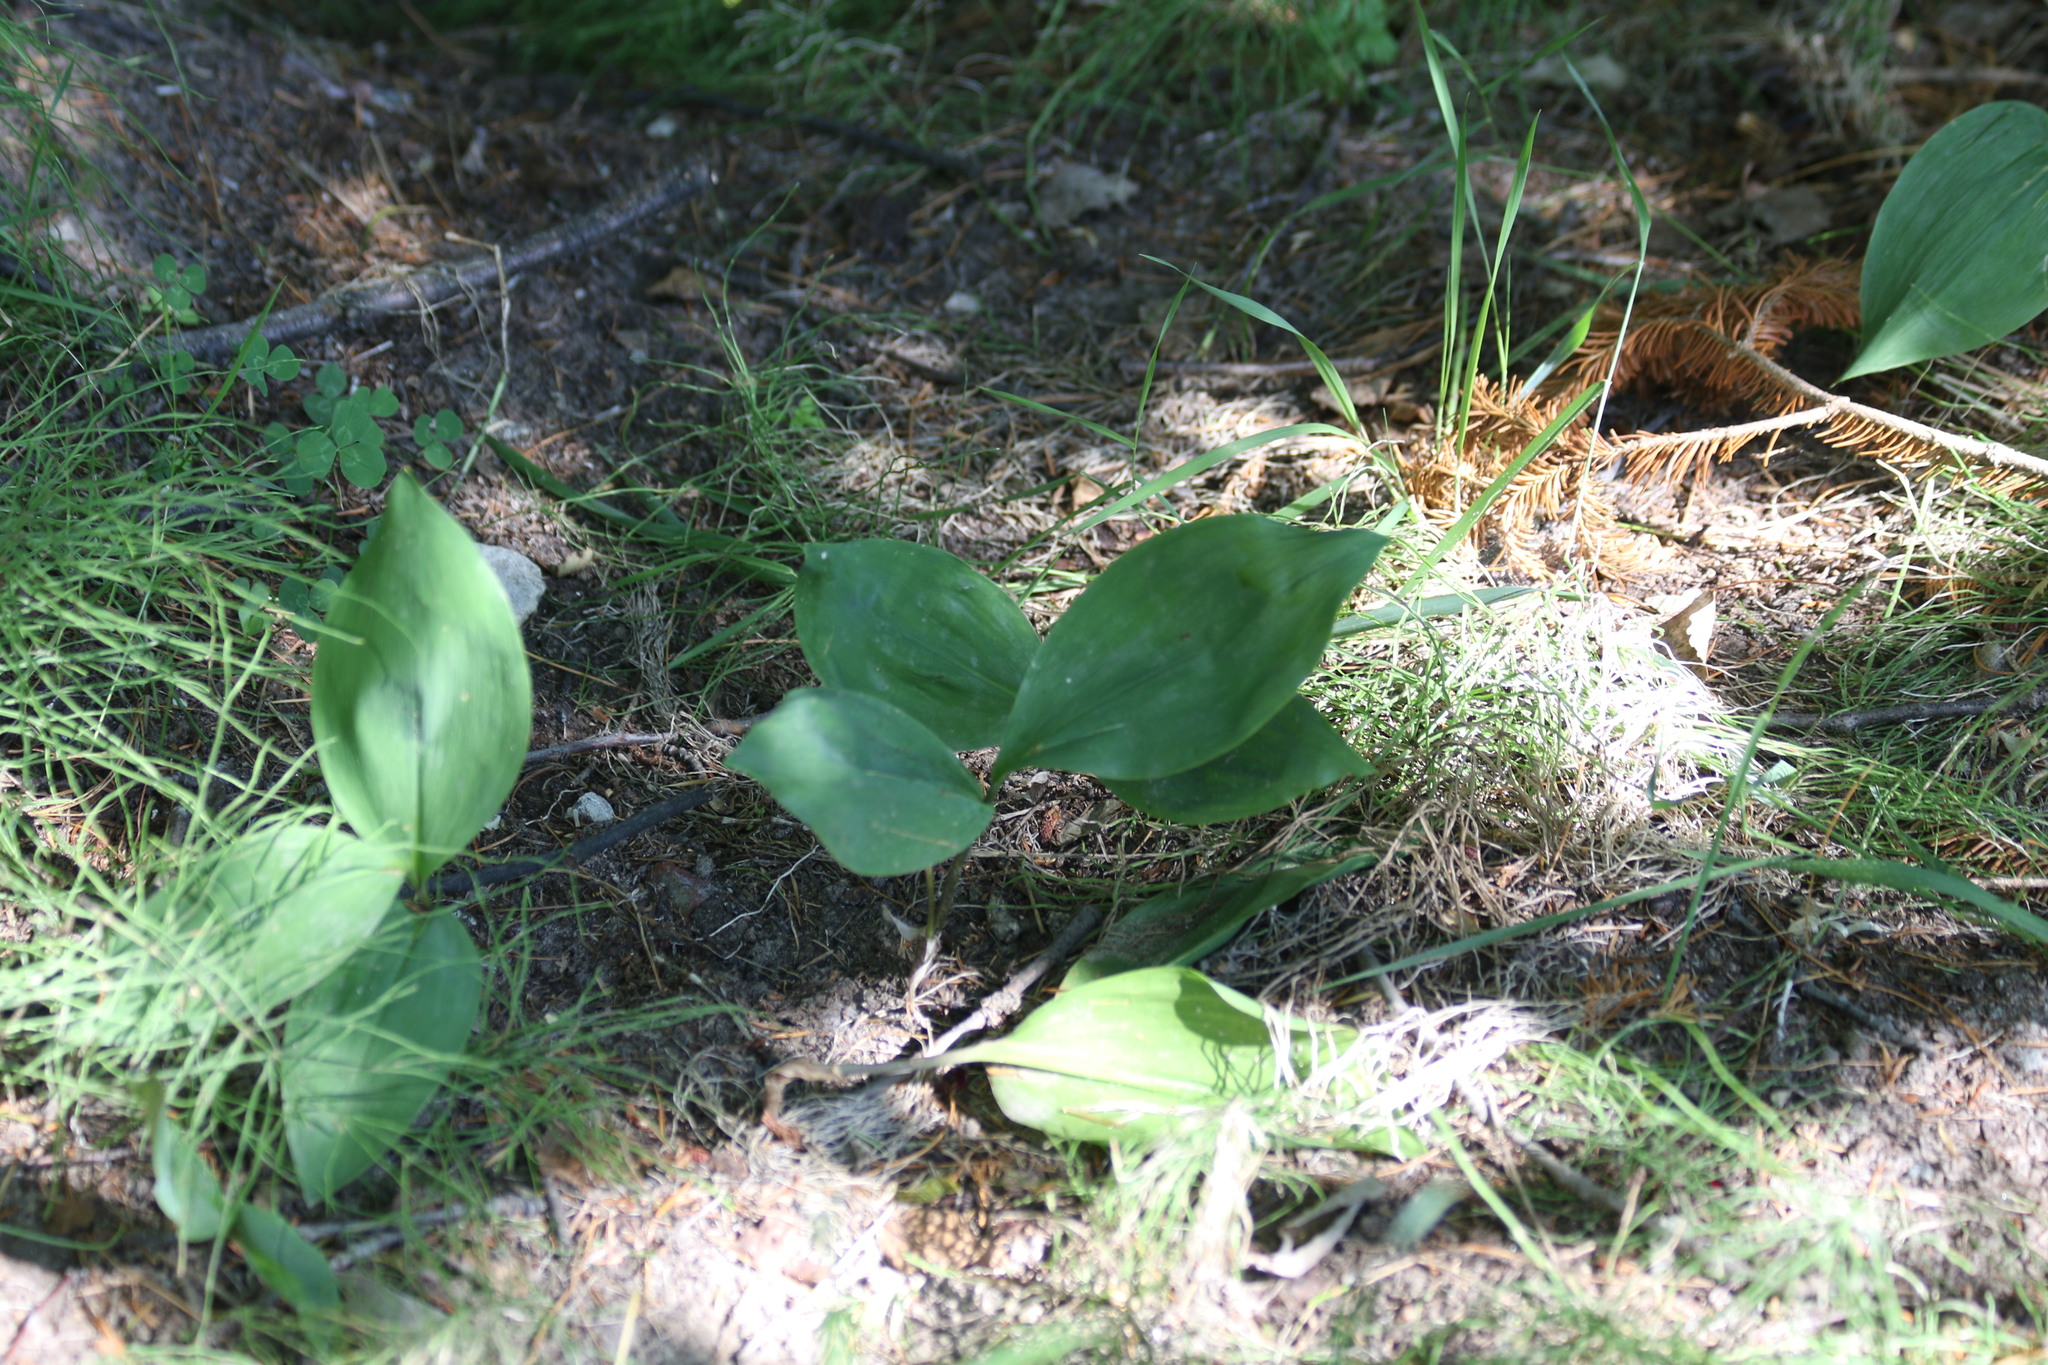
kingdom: Plantae
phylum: Tracheophyta
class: Liliopsida
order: Asparagales
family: Asparagaceae
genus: Convallaria
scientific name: Convallaria majalis
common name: Lily-of-the-valley
